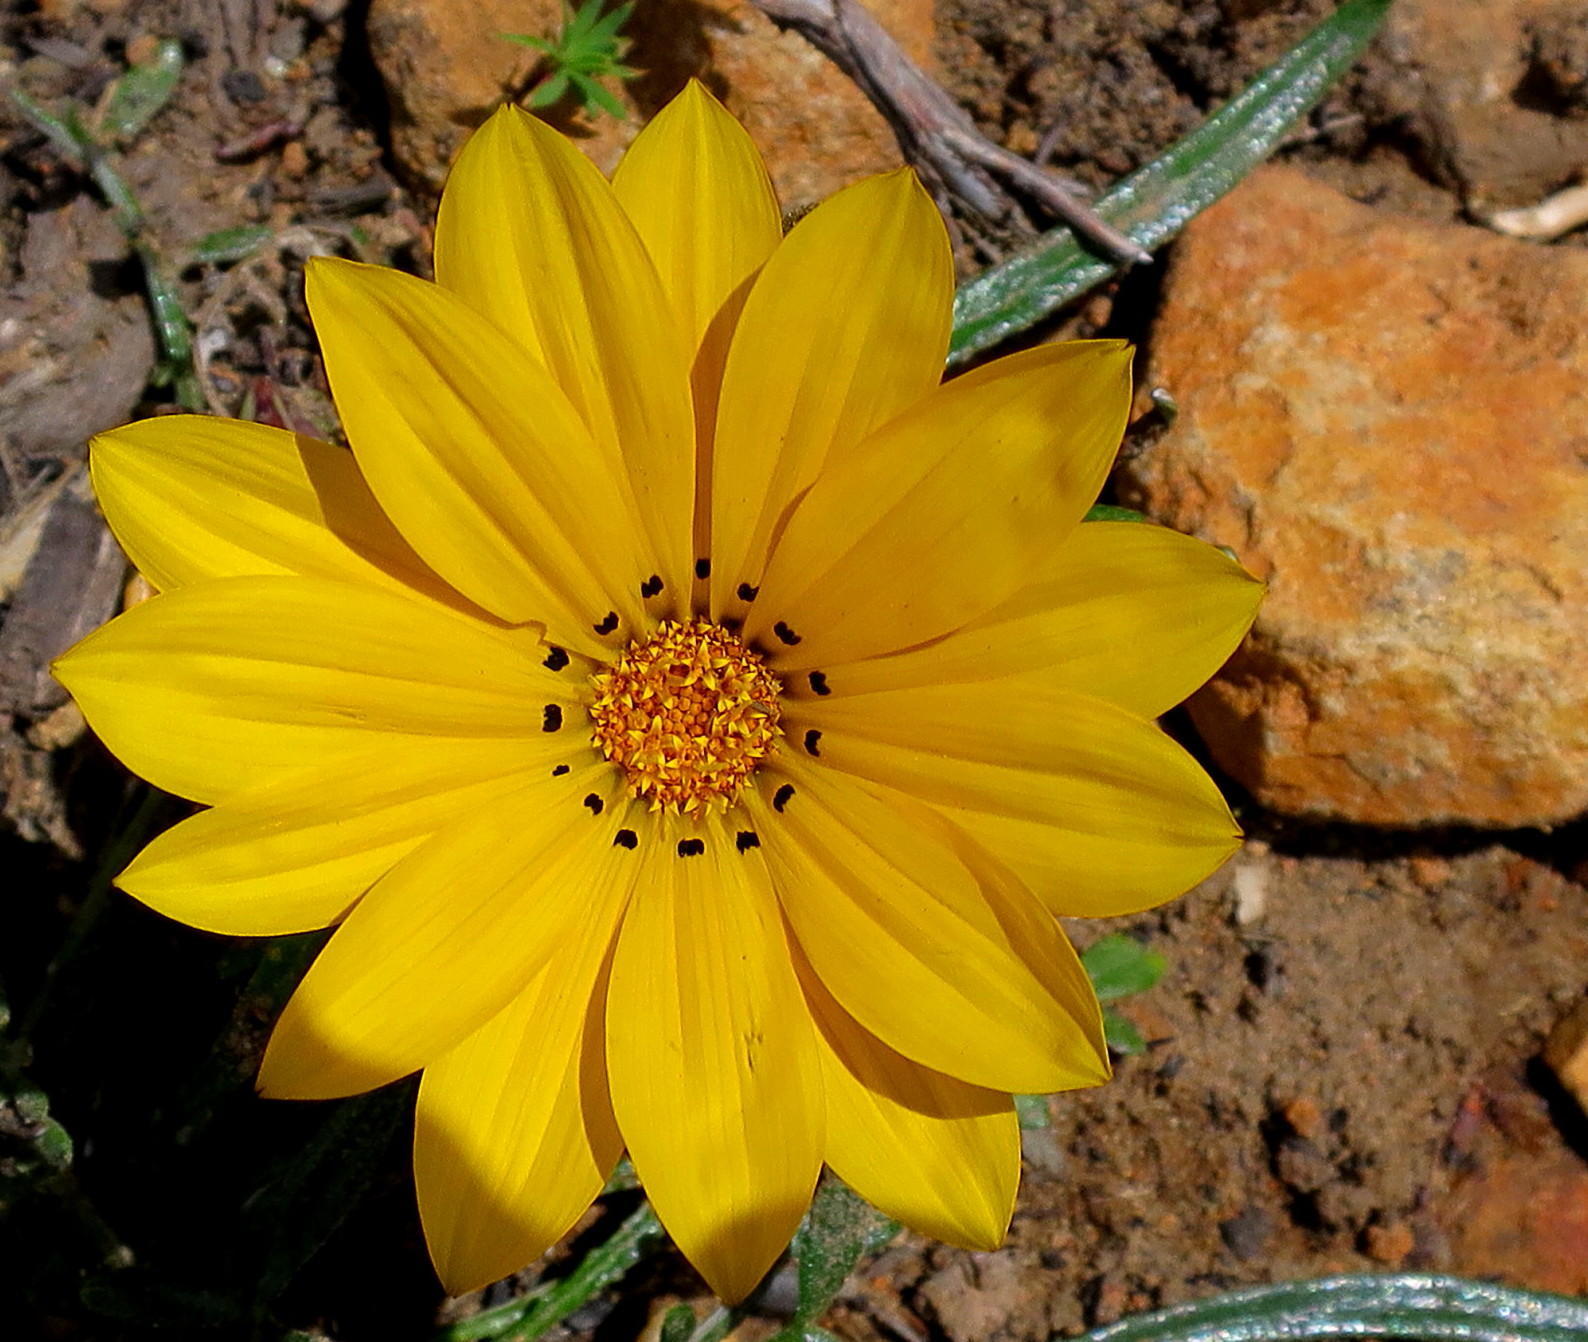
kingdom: Plantae
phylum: Tracheophyta
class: Magnoliopsida
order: Asterales
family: Asteraceae
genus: Gazania
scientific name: Gazania krebsiana
